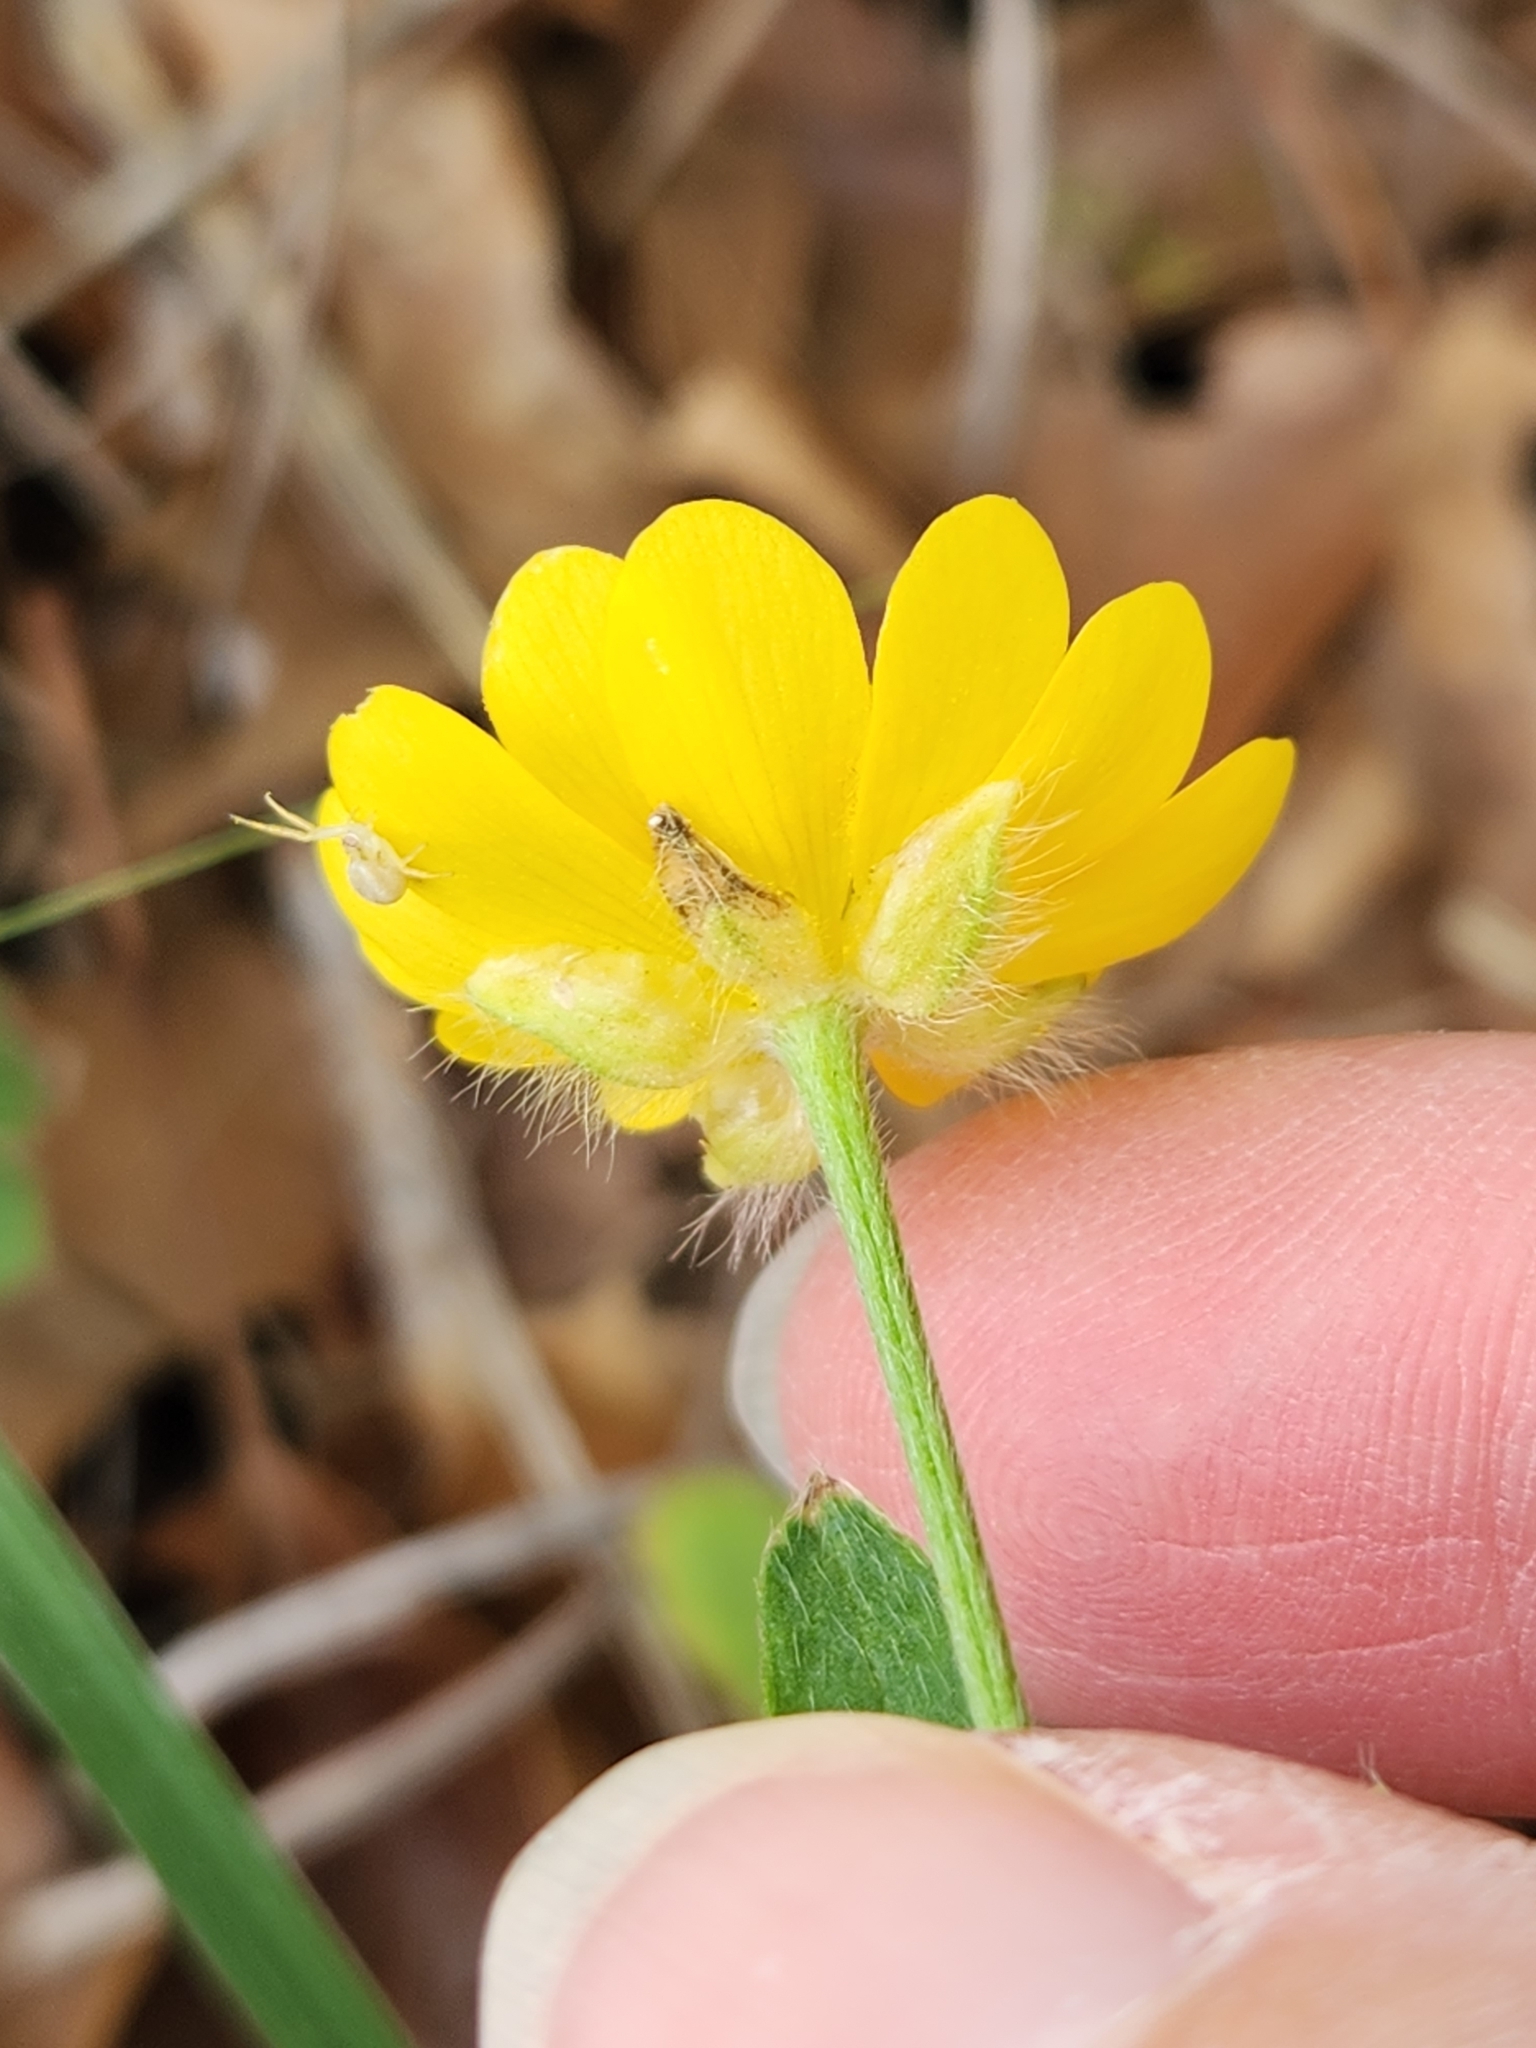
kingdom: Plantae
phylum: Tracheophyta
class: Magnoliopsida
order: Ranunculales
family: Ranunculaceae
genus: Ranunculus
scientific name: Ranunculus macranthus
